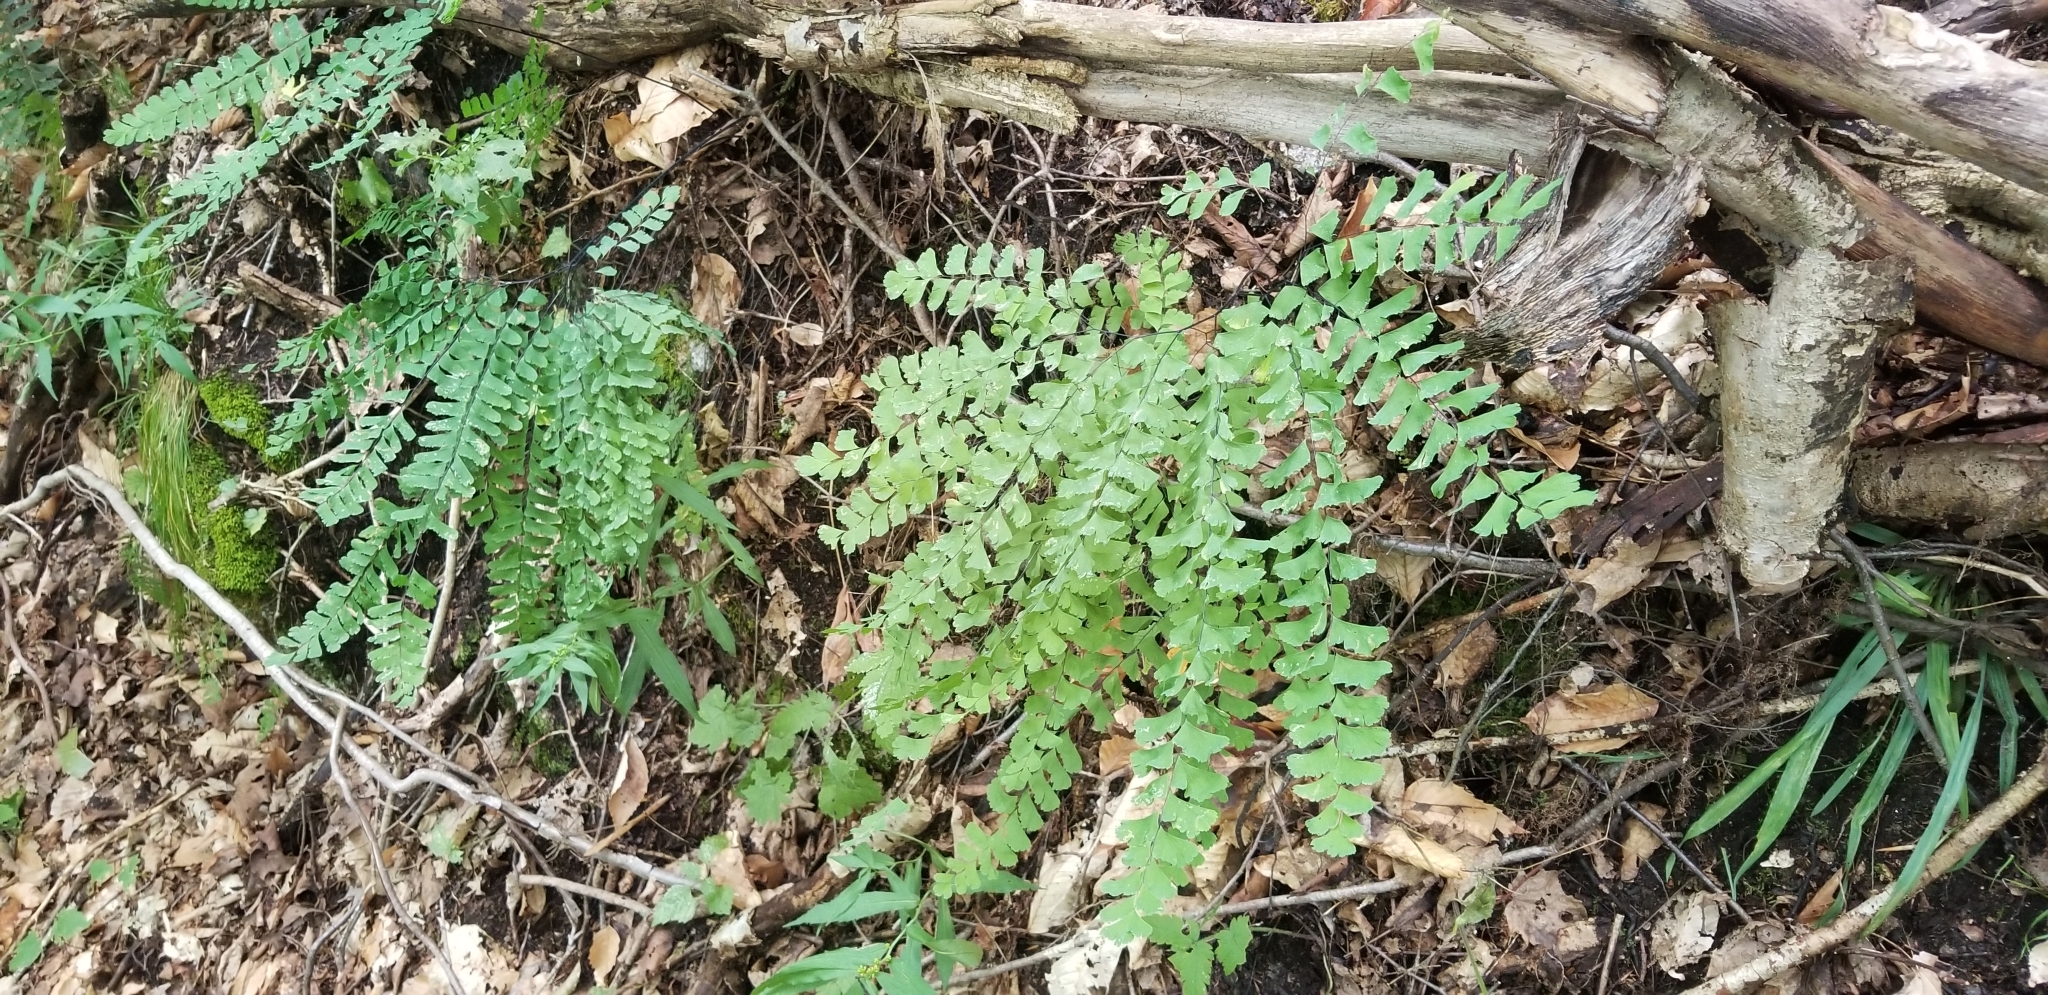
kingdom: Plantae
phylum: Tracheophyta
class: Polypodiopsida
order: Polypodiales
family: Pteridaceae
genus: Adiantum
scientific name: Adiantum pedatum
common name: Five-finger fern
